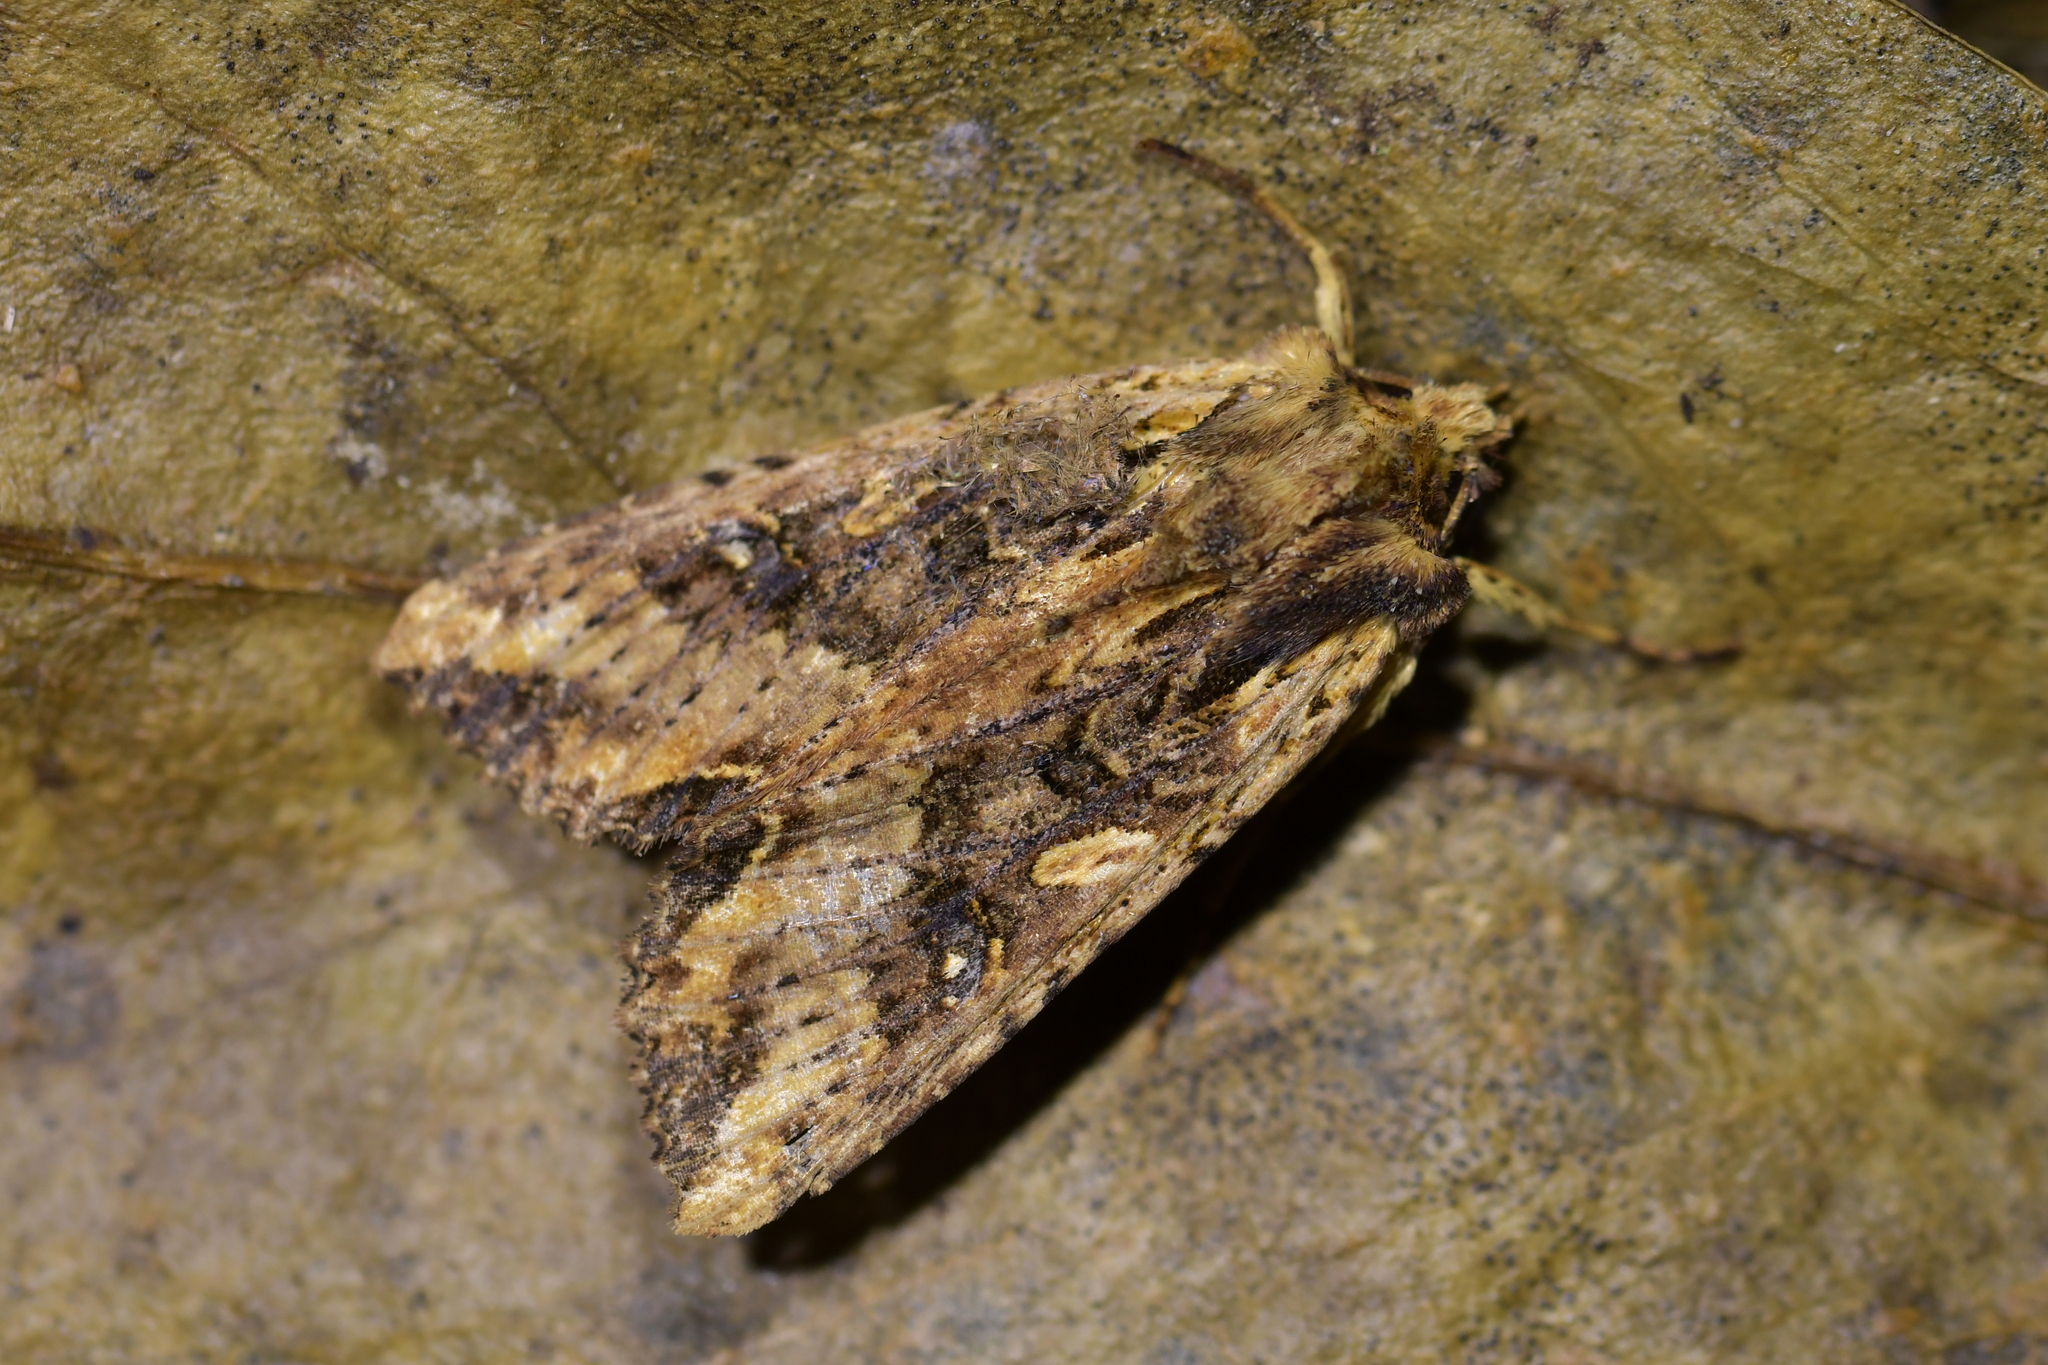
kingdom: Animalia
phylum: Arthropoda
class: Insecta
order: Lepidoptera
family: Noctuidae
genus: Meterana
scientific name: Meterana stipata
